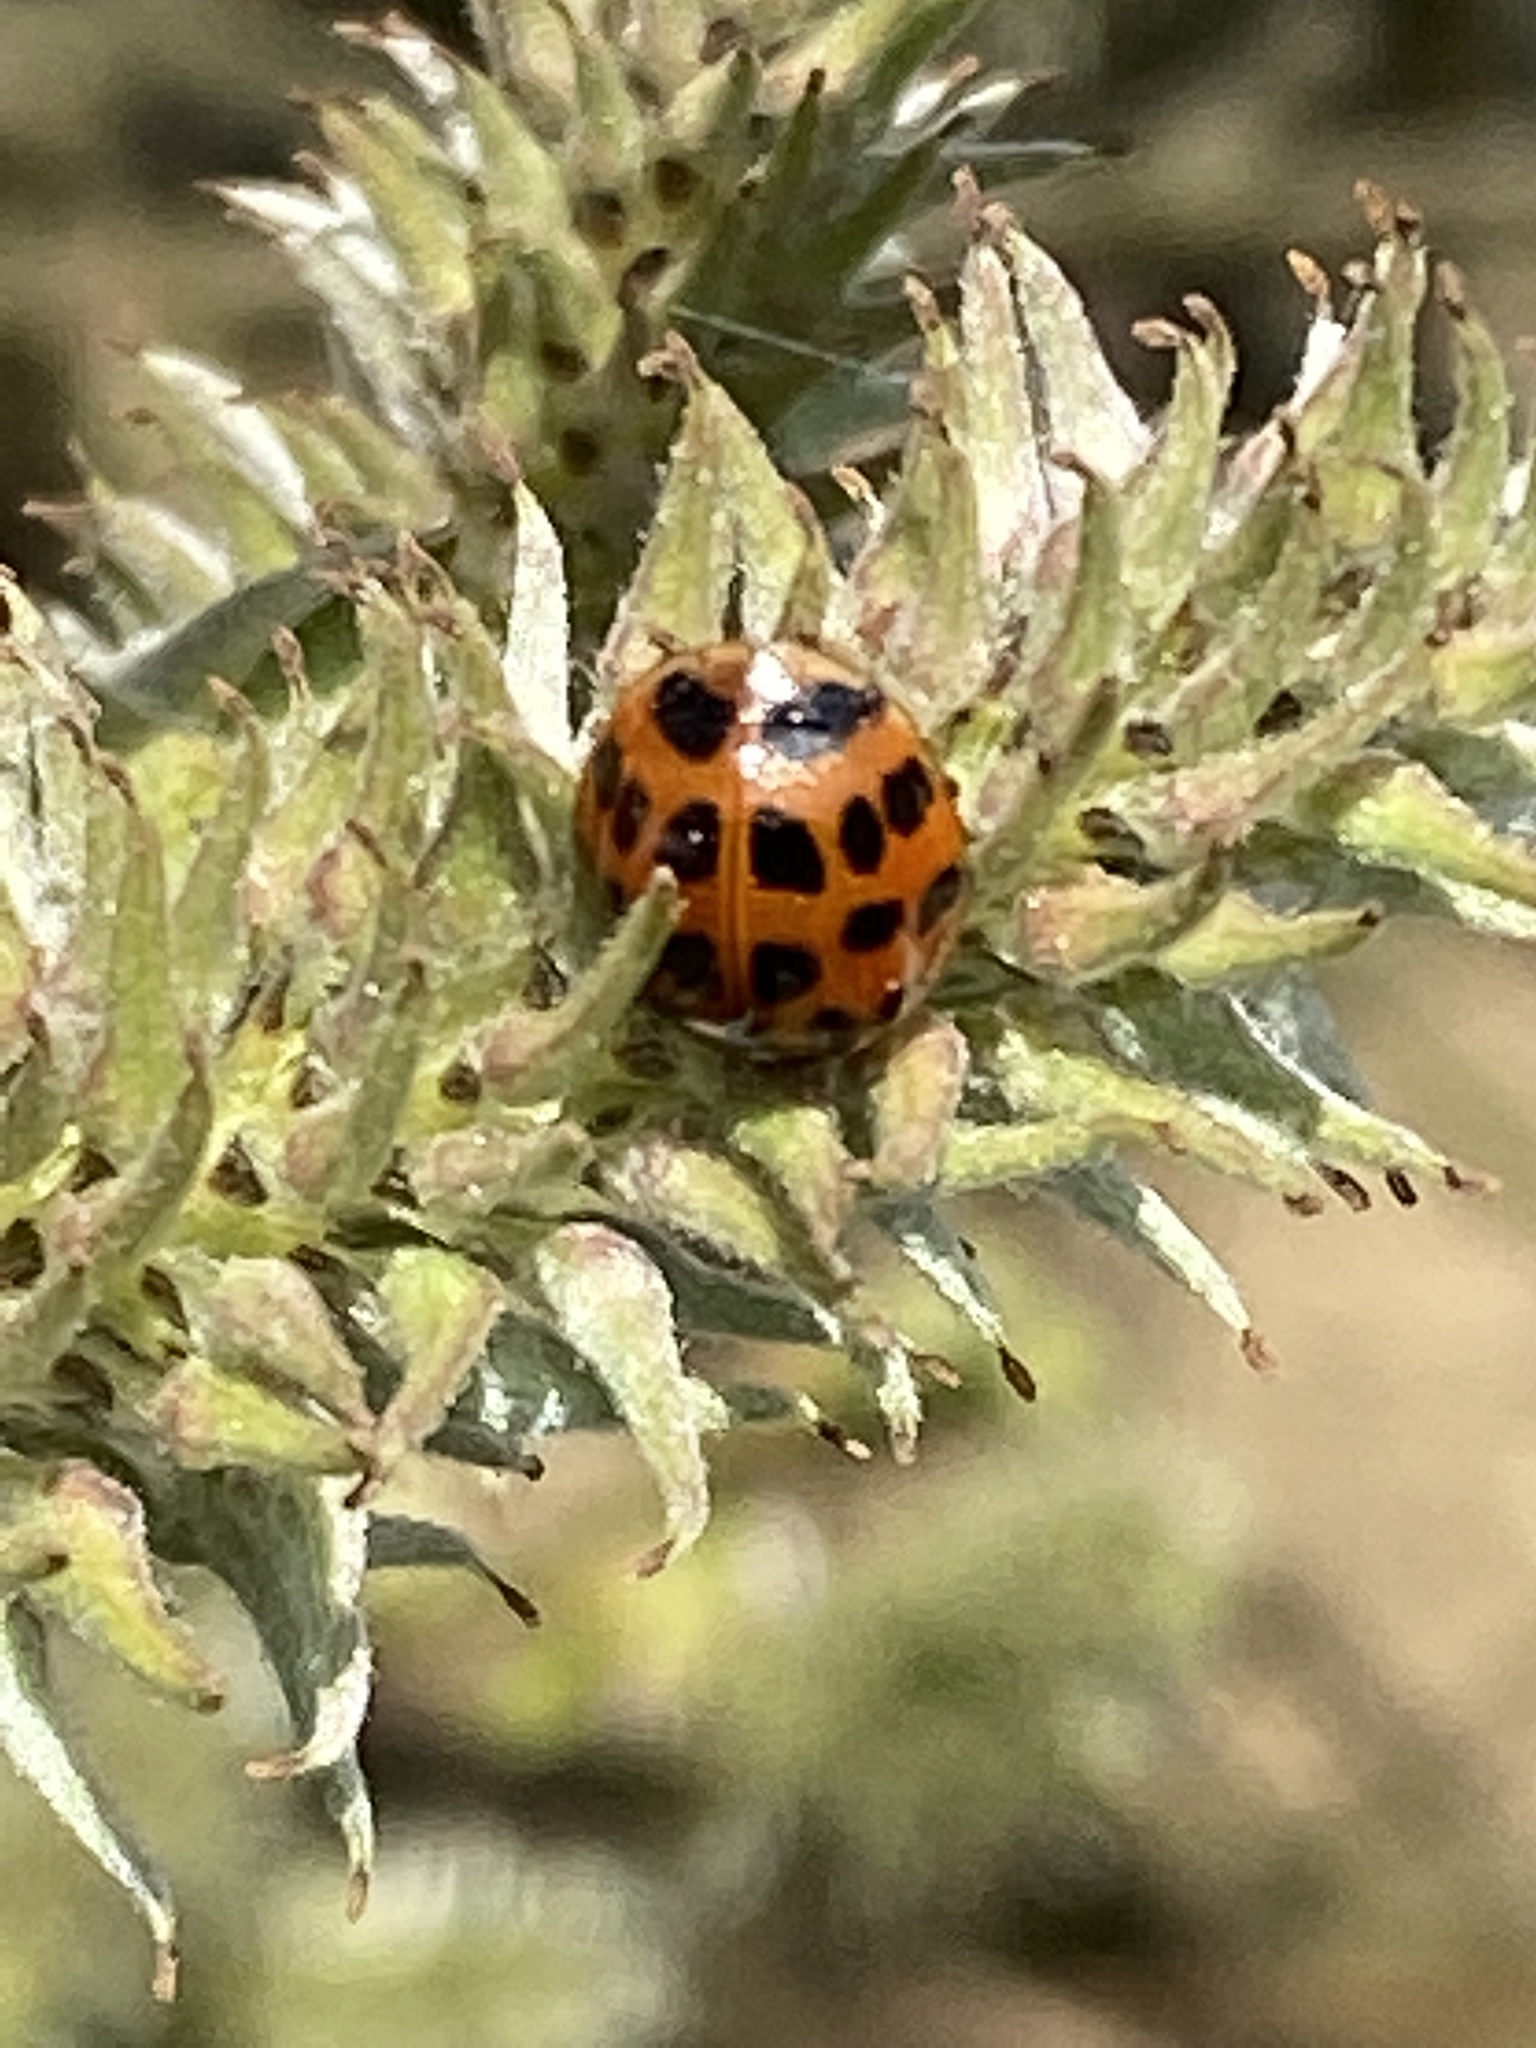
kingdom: Animalia
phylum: Arthropoda
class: Insecta
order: Coleoptera
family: Coccinellidae
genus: Harmonia
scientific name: Harmonia axyridis
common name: Harlequin ladybird
